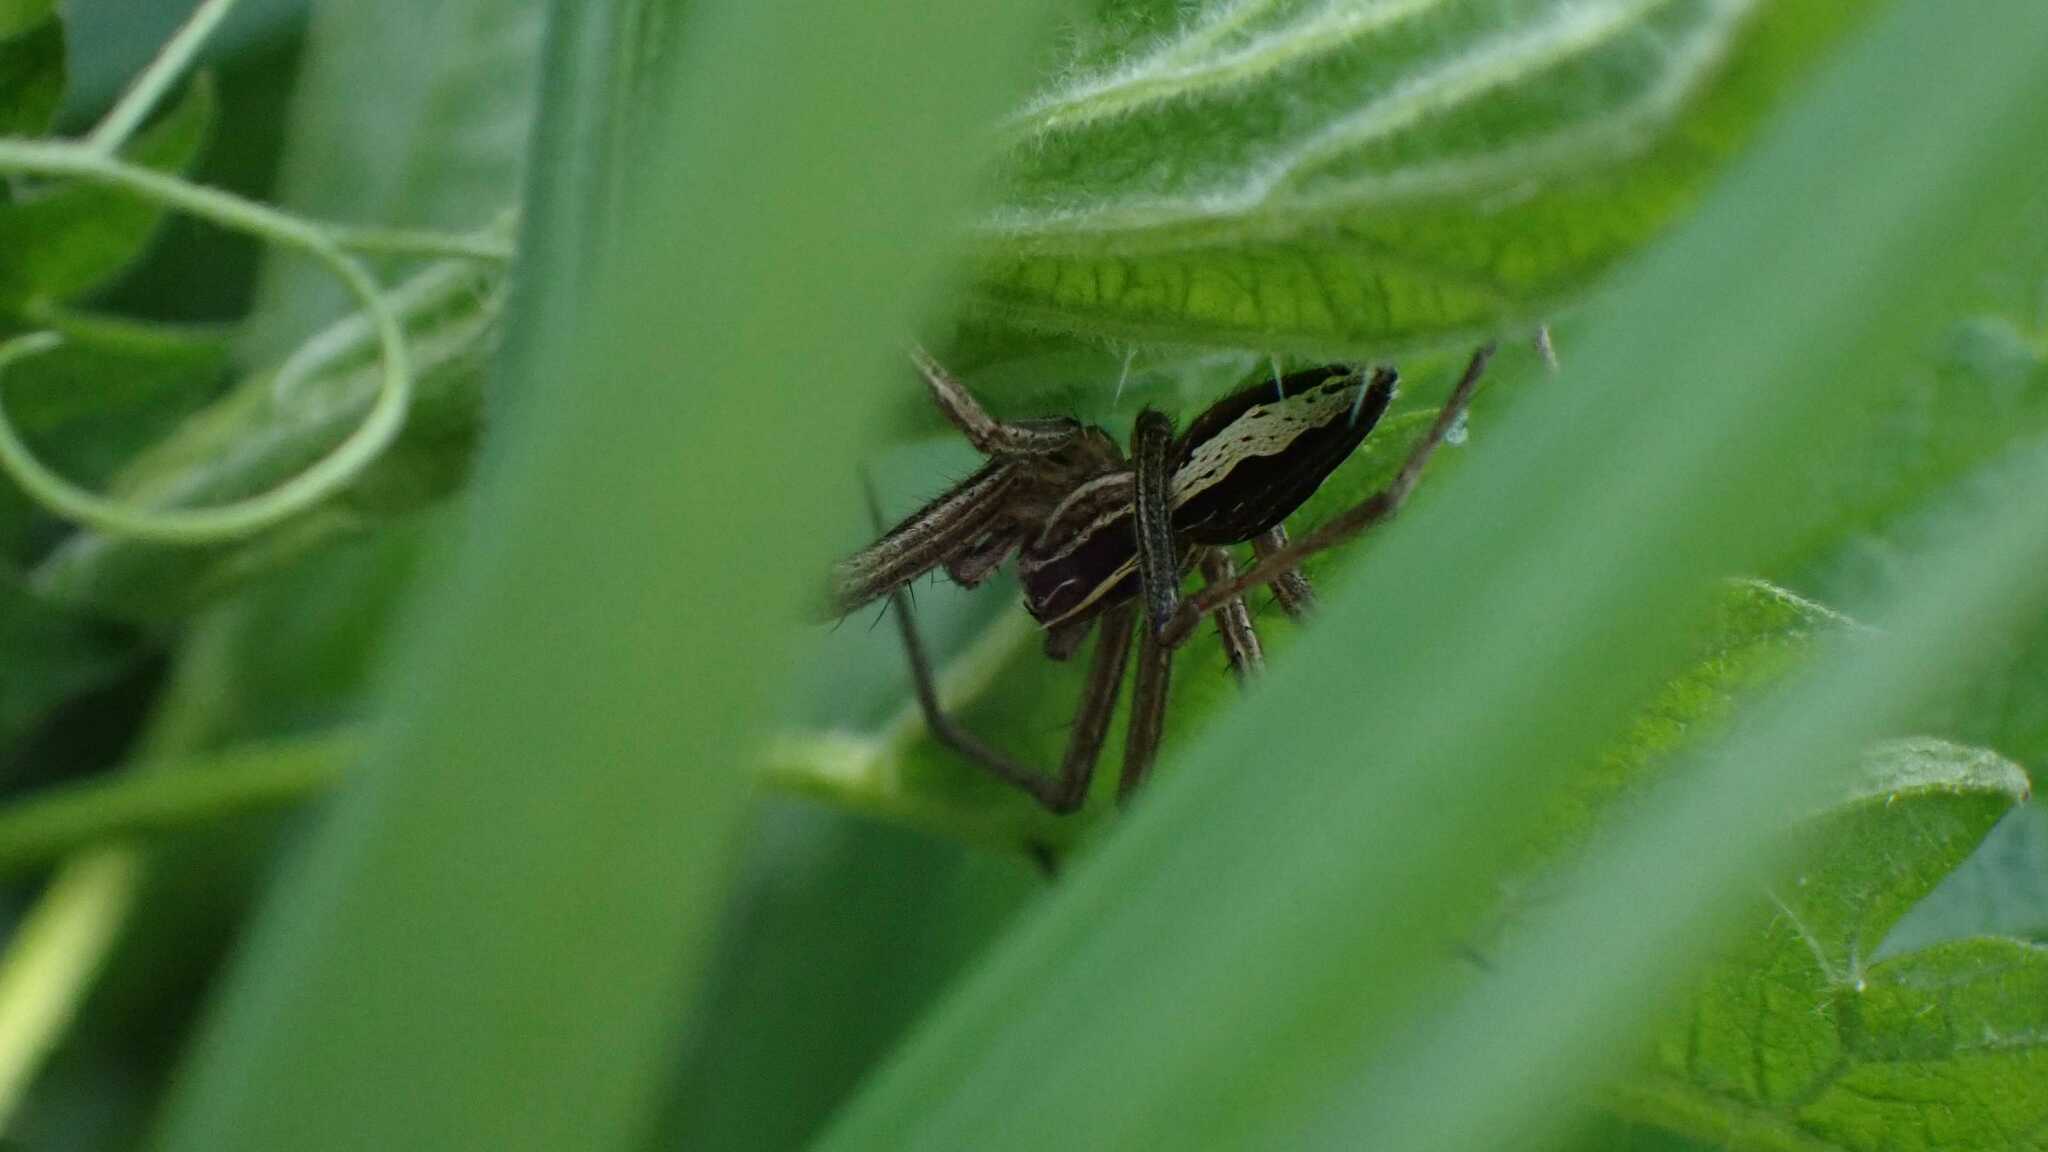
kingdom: Animalia
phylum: Arthropoda
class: Arachnida
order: Araneae
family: Pisauridae
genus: Pisaura
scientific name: Pisaura mirabilis
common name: Tent spider
